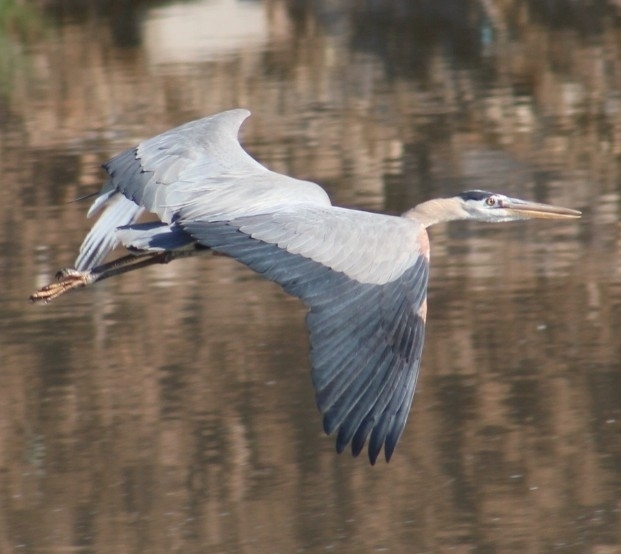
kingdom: Animalia
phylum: Chordata
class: Aves
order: Pelecaniformes
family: Ardeidae
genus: Ardea
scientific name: Ardea herodias
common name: Great blue heron
